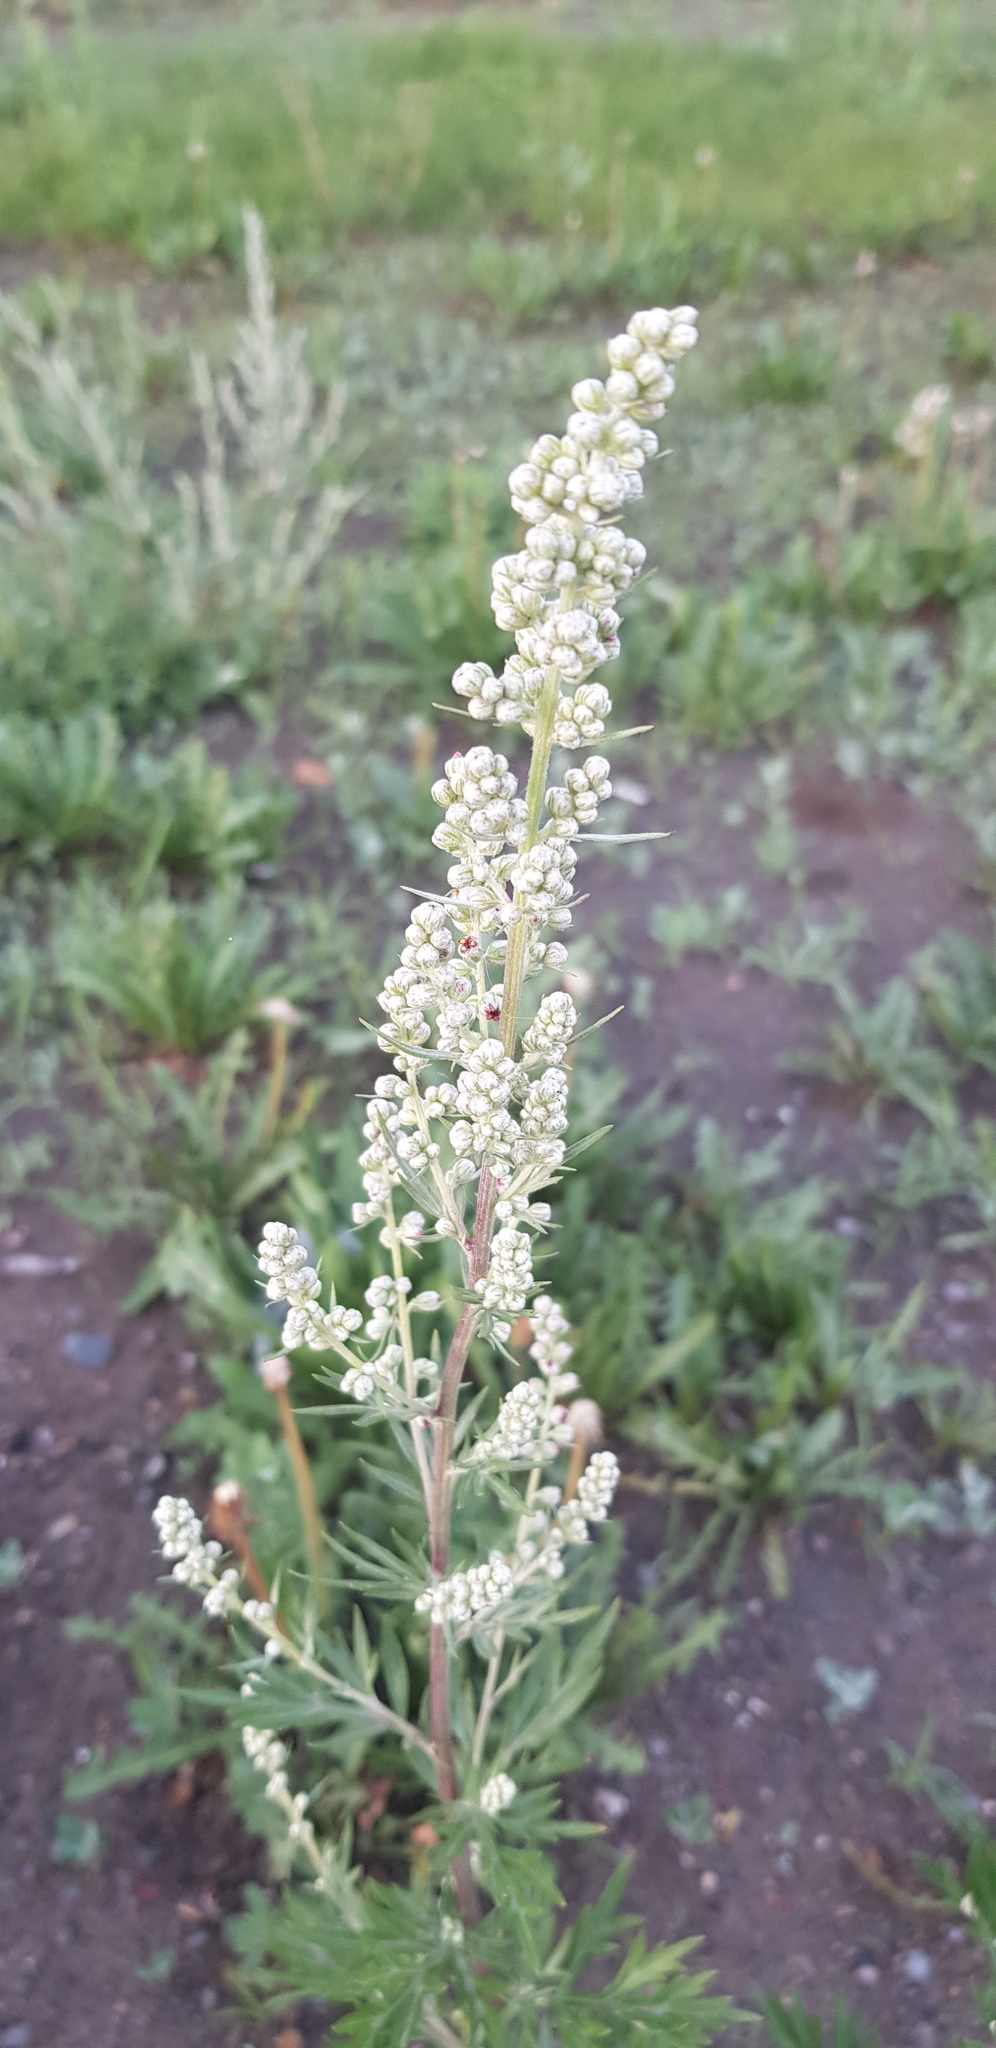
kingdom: Plantae
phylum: Tracheophyta
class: Magnoliopsida
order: Asterales
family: Asteraceae
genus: Artemisia
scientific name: Artemisia vulgaris
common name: Mugwort
